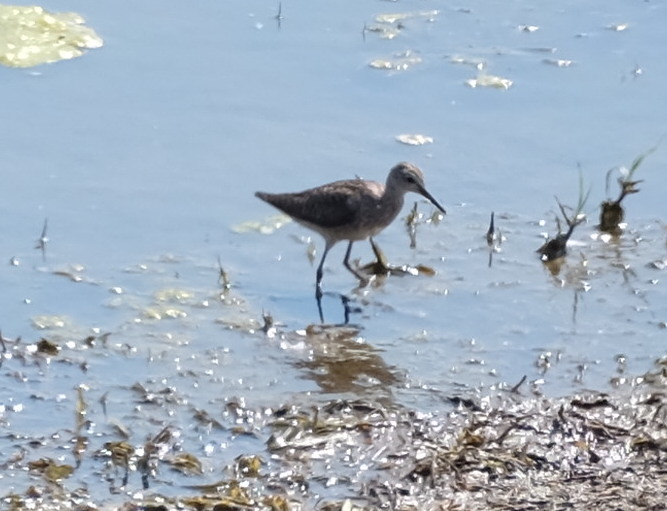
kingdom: Animalia
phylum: Chordata
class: Aves
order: Charadriiformes
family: Scolopacidae
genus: Tringa
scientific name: Tringa glareola
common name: Wood sandpiper
